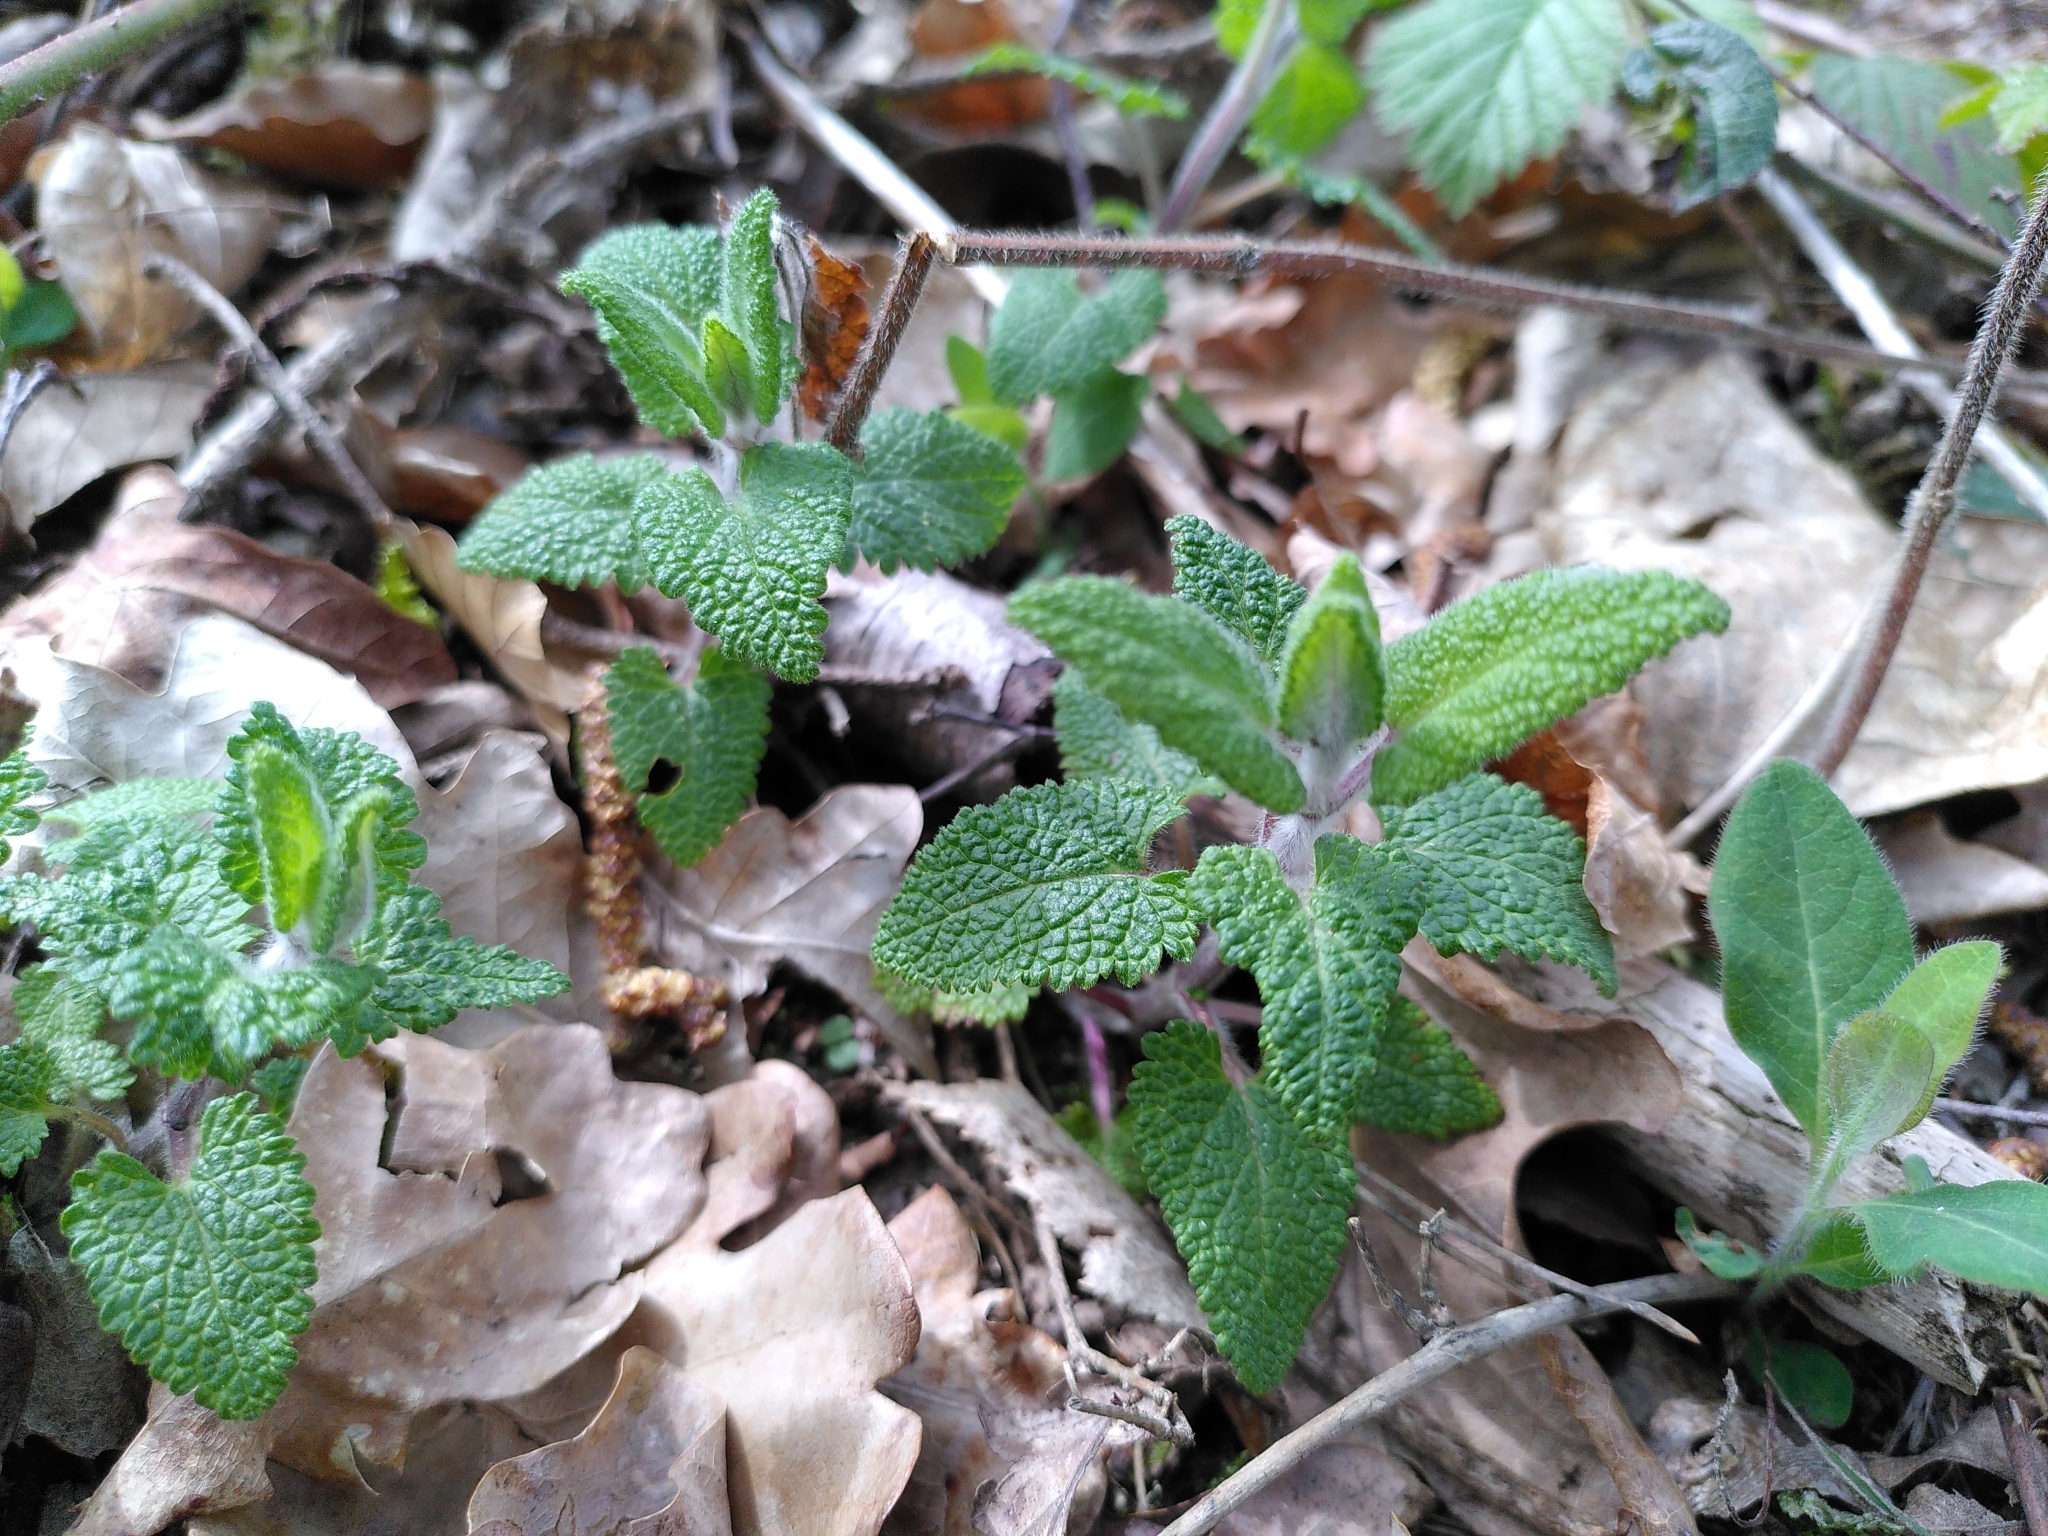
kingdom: Plantae
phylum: Tracheophyta
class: Magnoliopsida
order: Lamiales
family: Lamiaceae
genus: Stachys
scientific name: Stachys sylvatica
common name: Hedge woundwort
